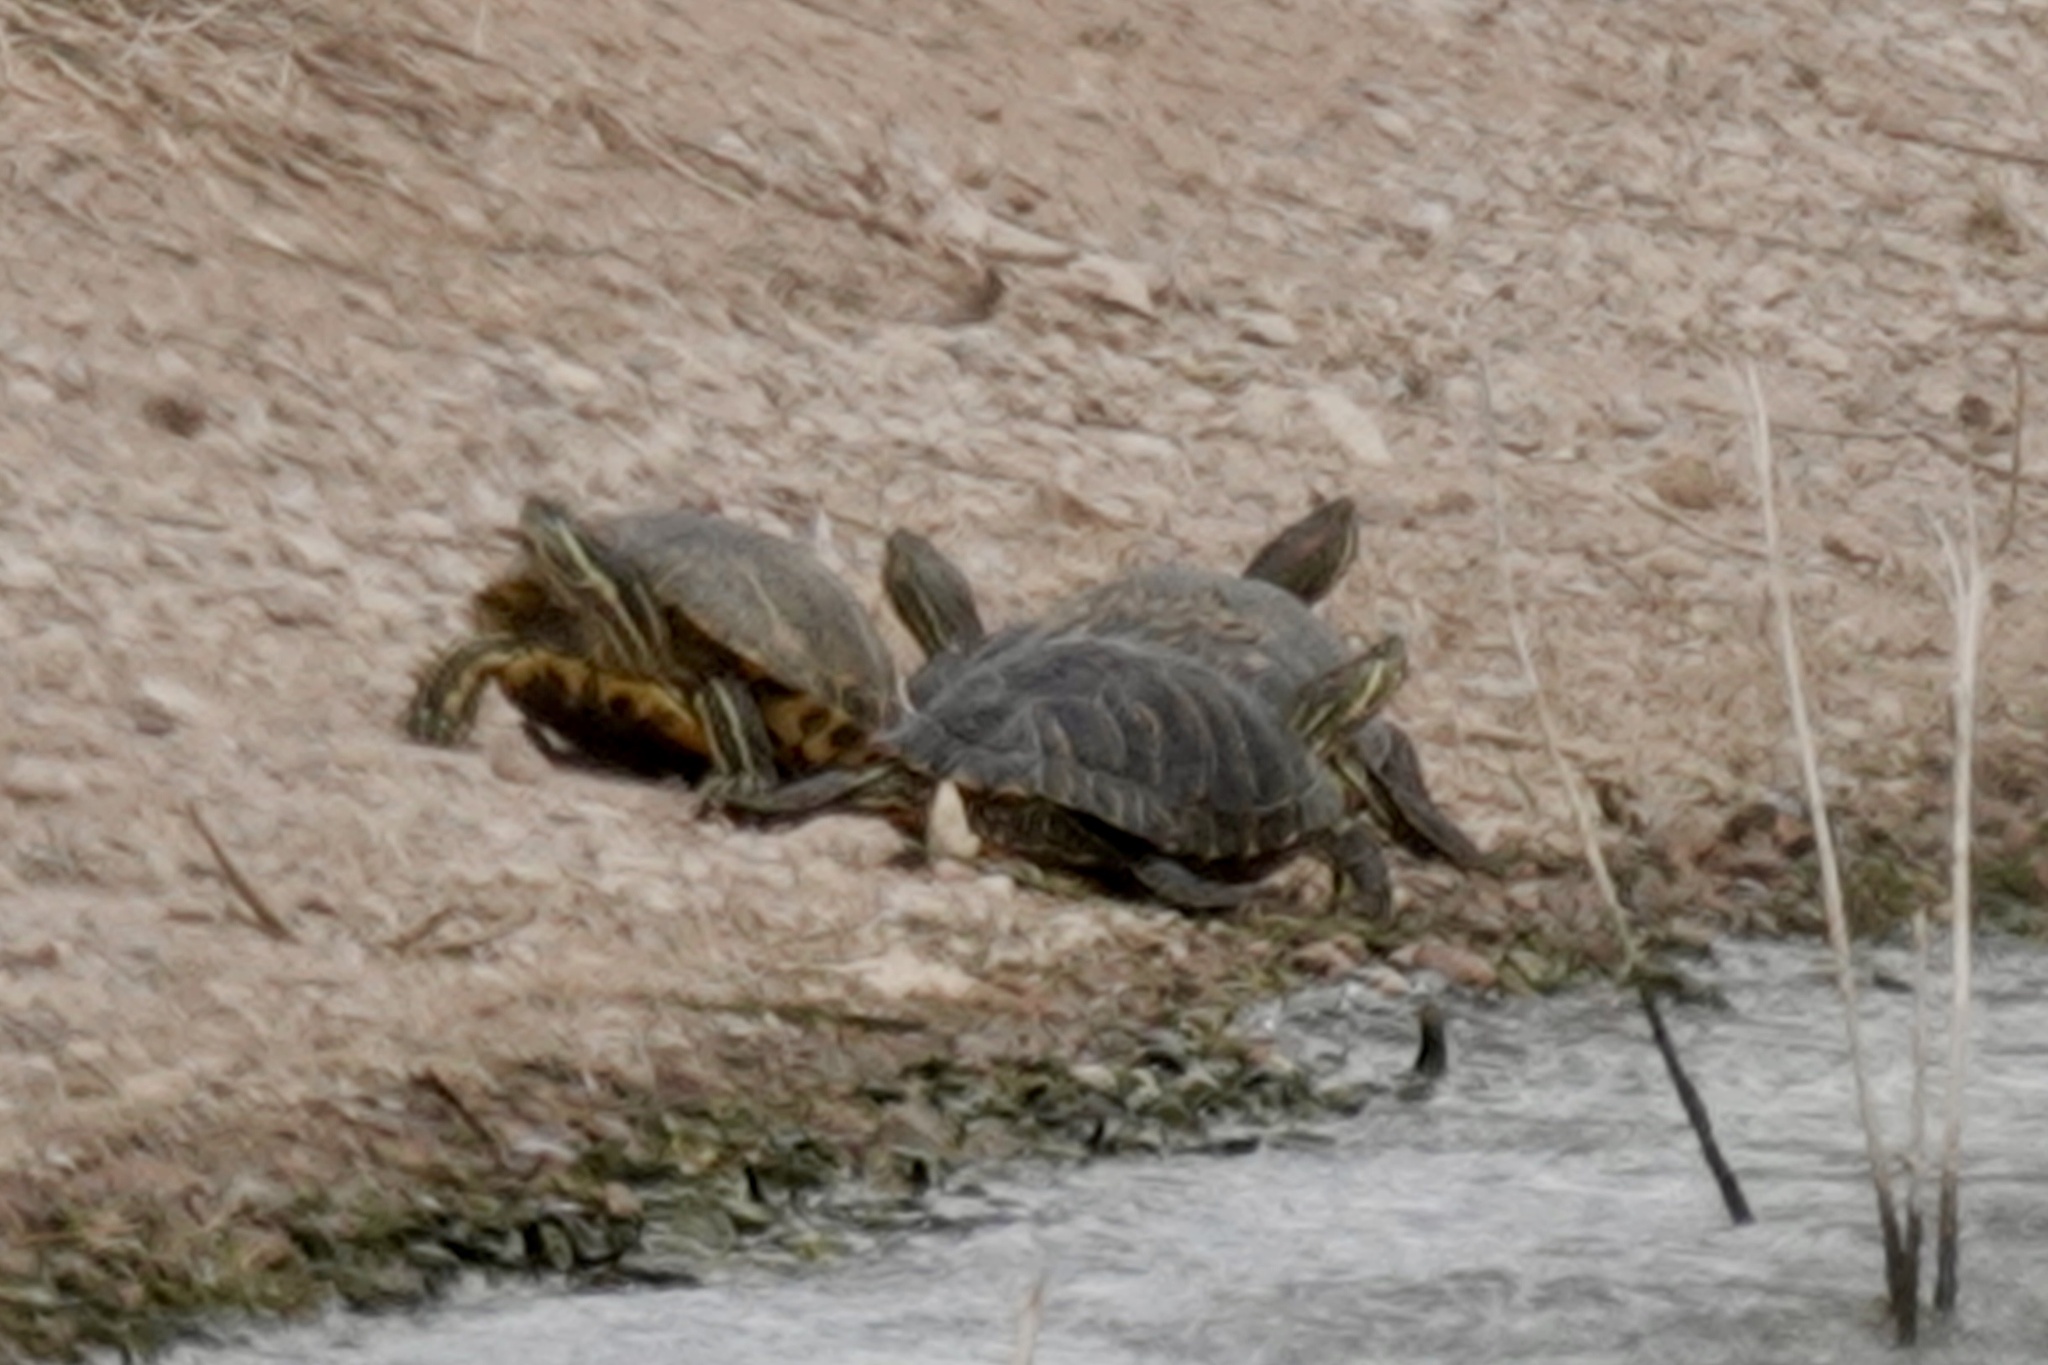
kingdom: Animalia
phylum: Chordata
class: Testudines
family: Emydidae
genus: Trachemys
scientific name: Trachemys scripta
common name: Slider
